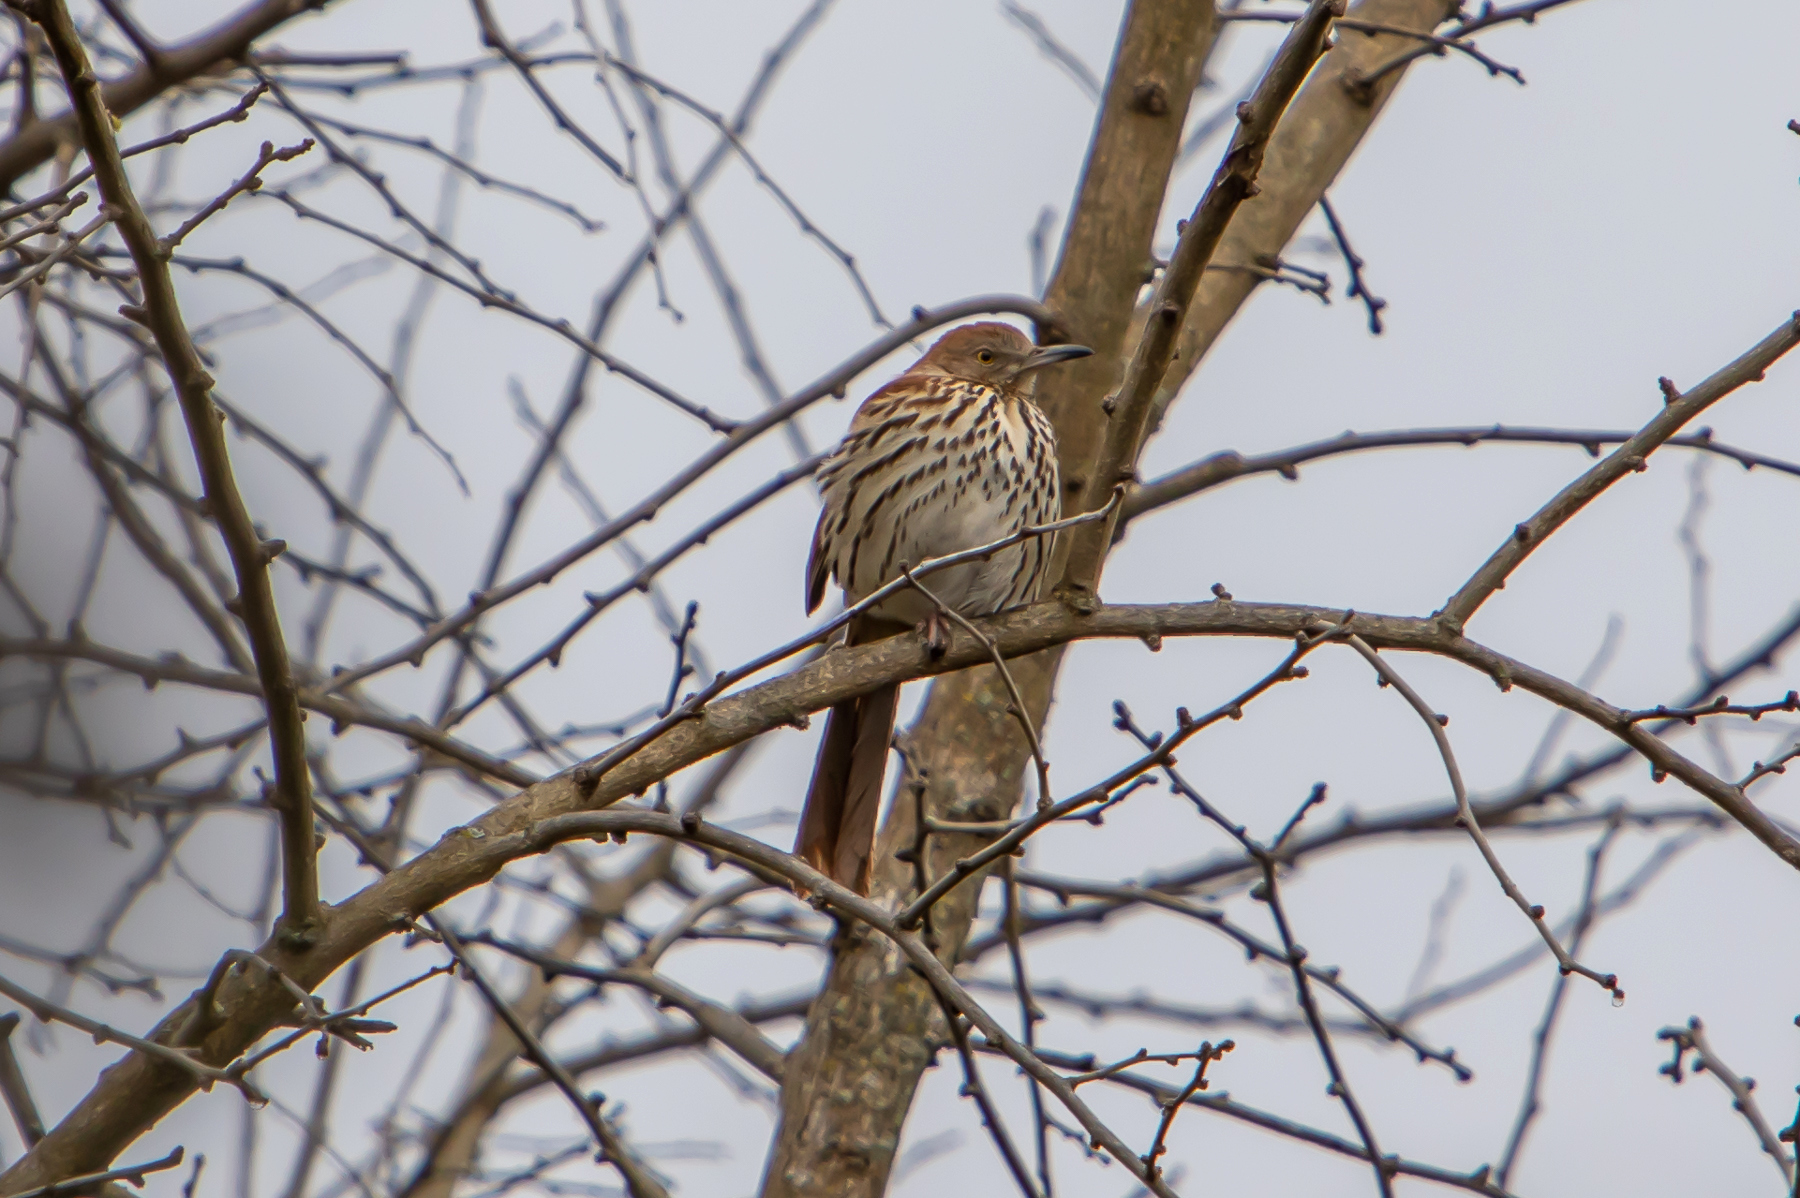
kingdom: Animalia
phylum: Chordata
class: Aves
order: Passeriformes
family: Mimidae
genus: Toxostoma
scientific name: Toxostoma rufum
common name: Brown thrasher
